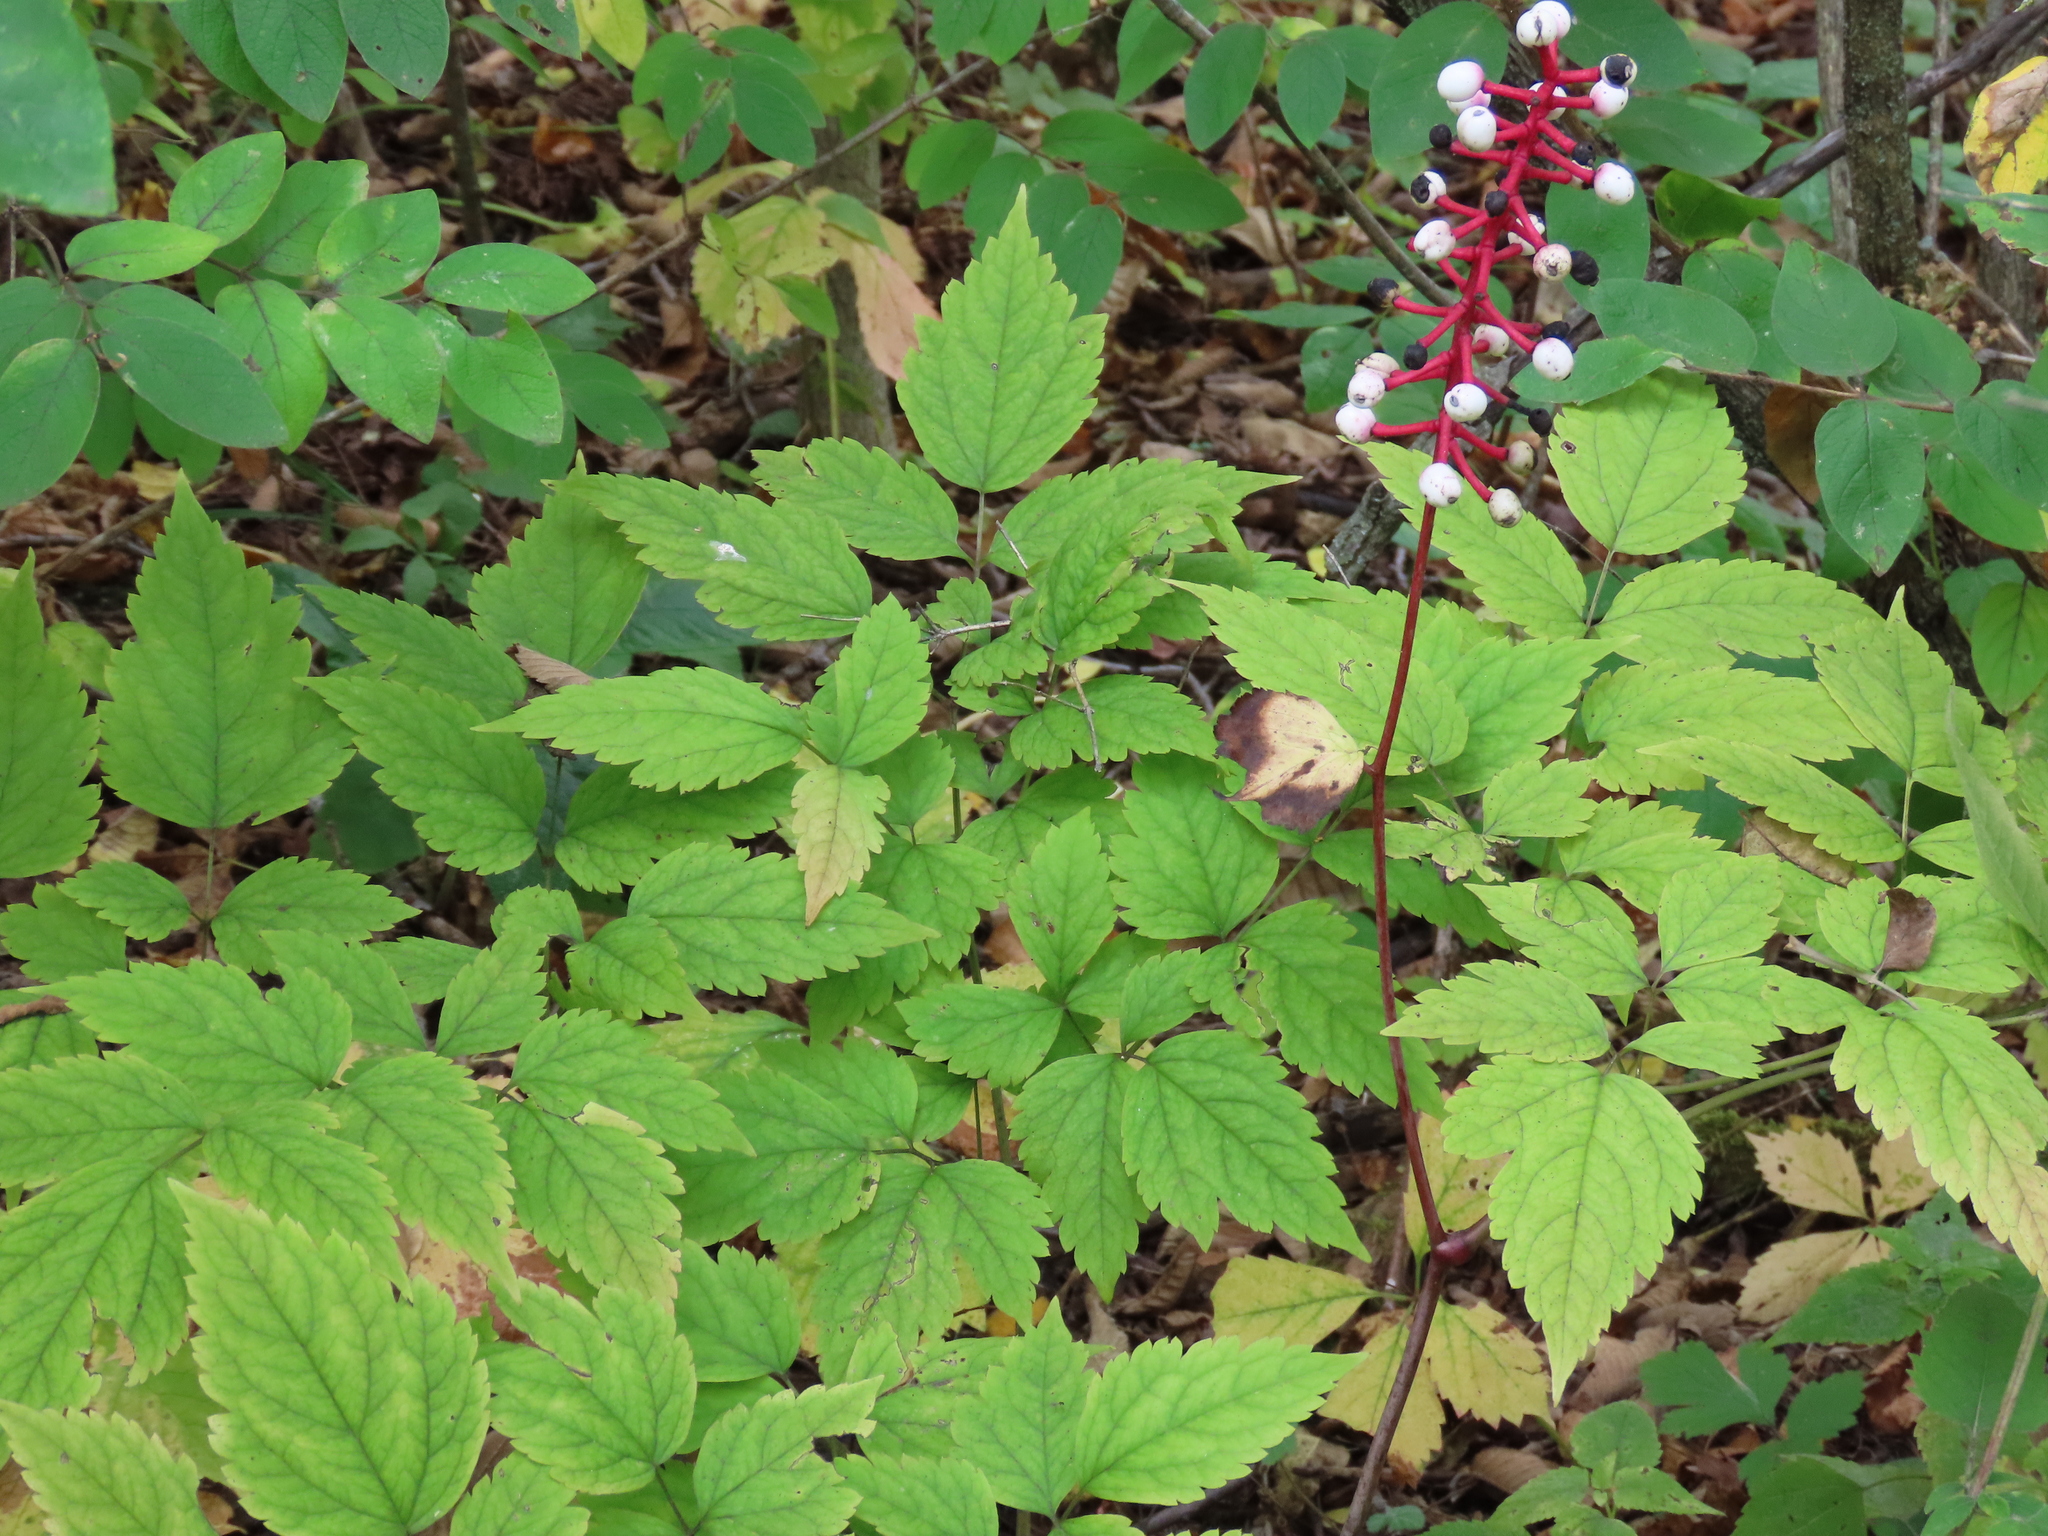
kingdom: Plantae
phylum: Tracheophyta
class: Magnoliopsida
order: Ranunculales
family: Ranunculaceae
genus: Actaea
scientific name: Actaea pachypoda
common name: Doll's-eyes
